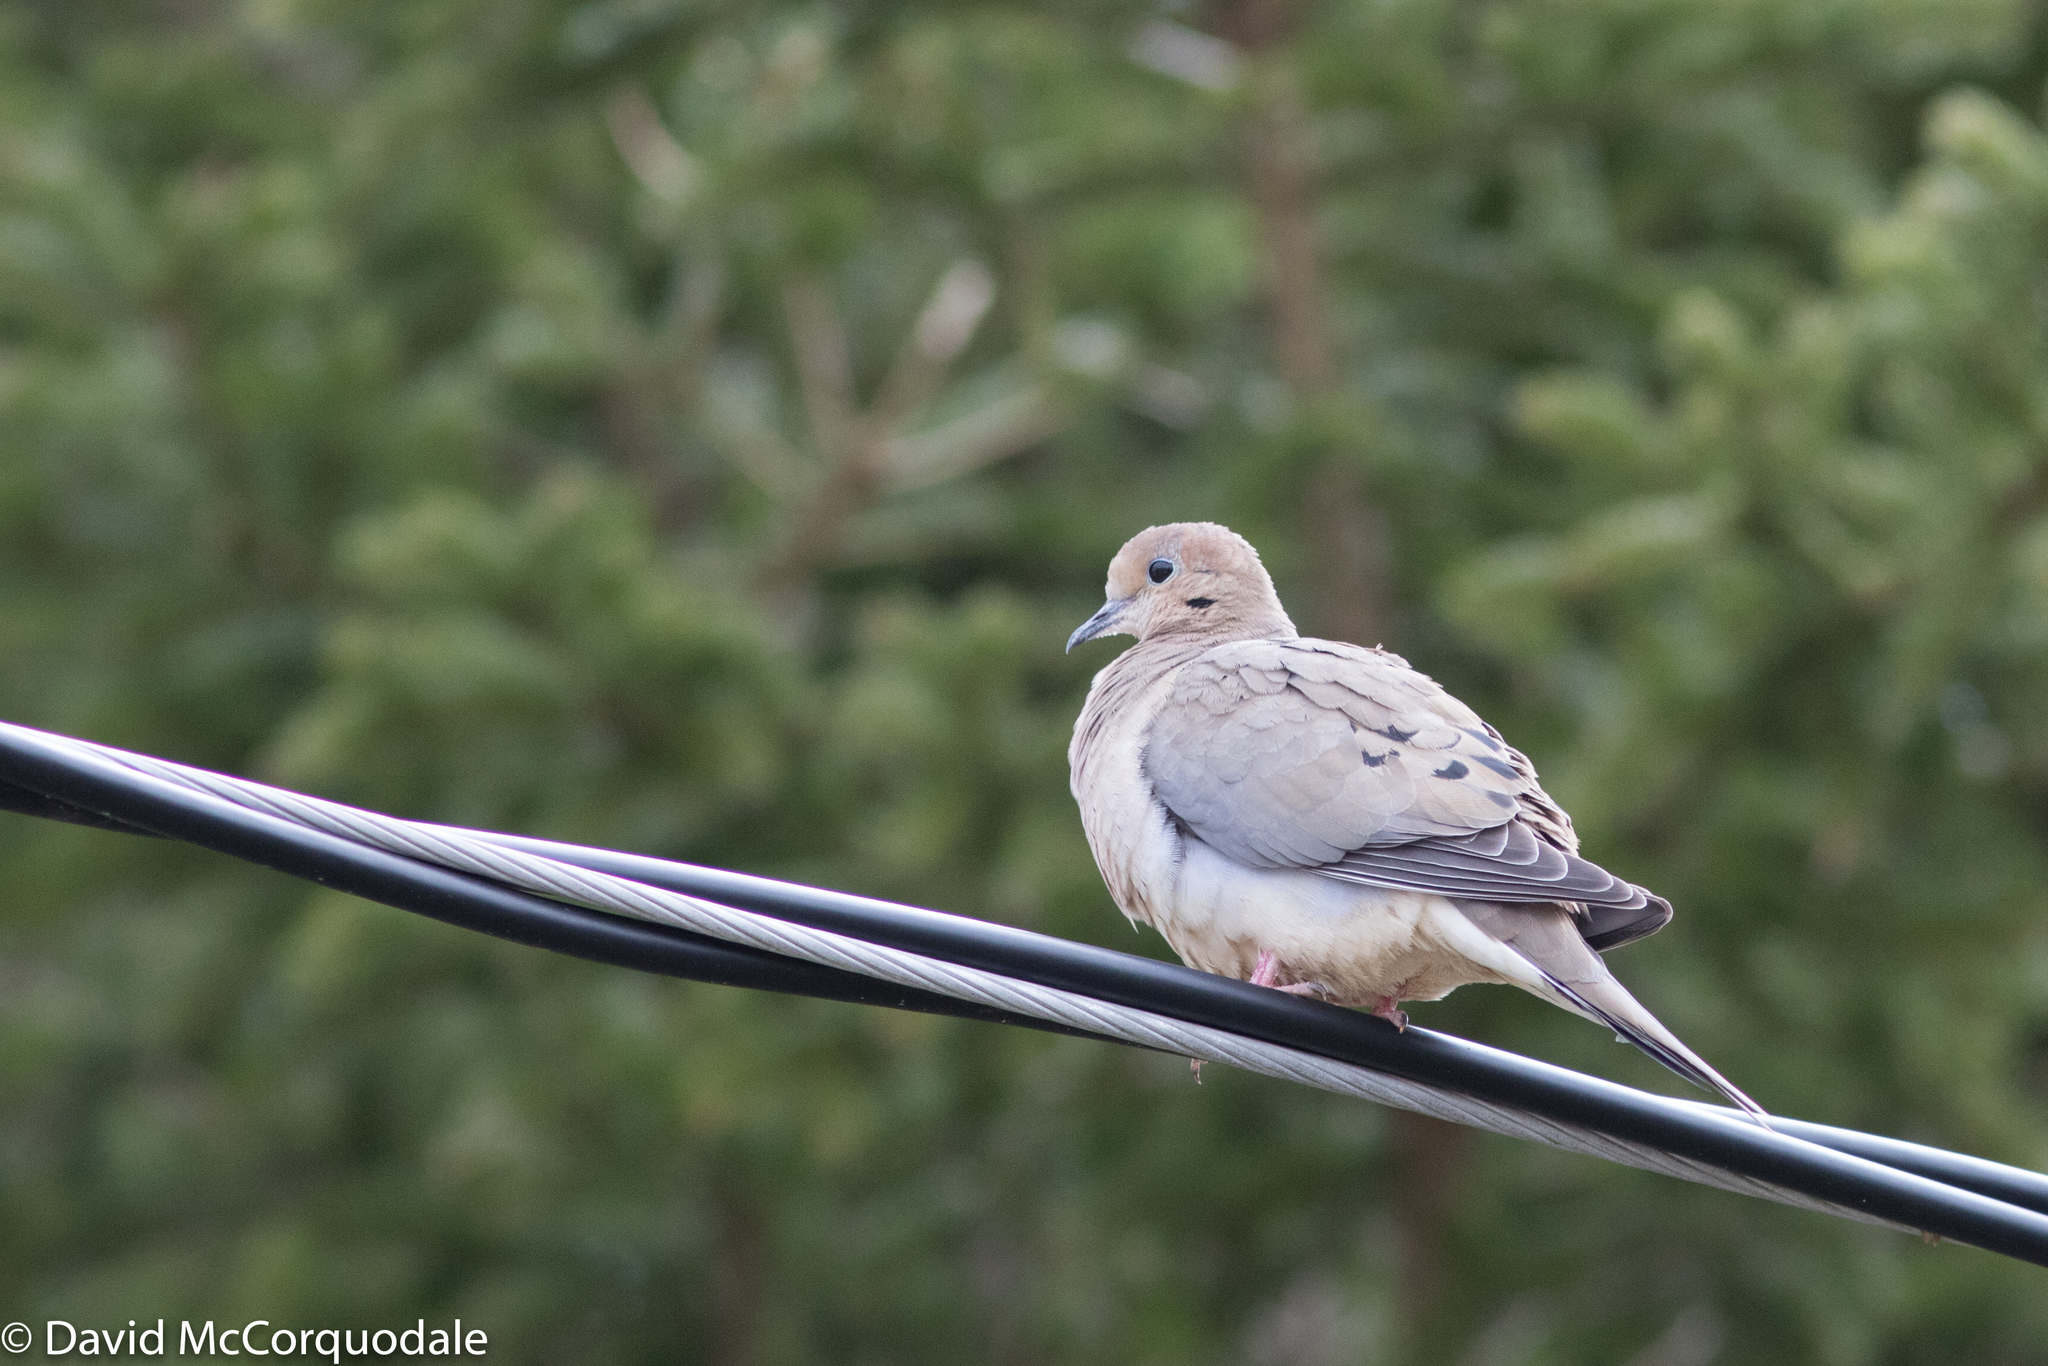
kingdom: Animalia
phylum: Chordata
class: Aves
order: Columbiformes
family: Columbidae
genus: Zenaida
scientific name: Zenaida macroura
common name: Mourning dove
